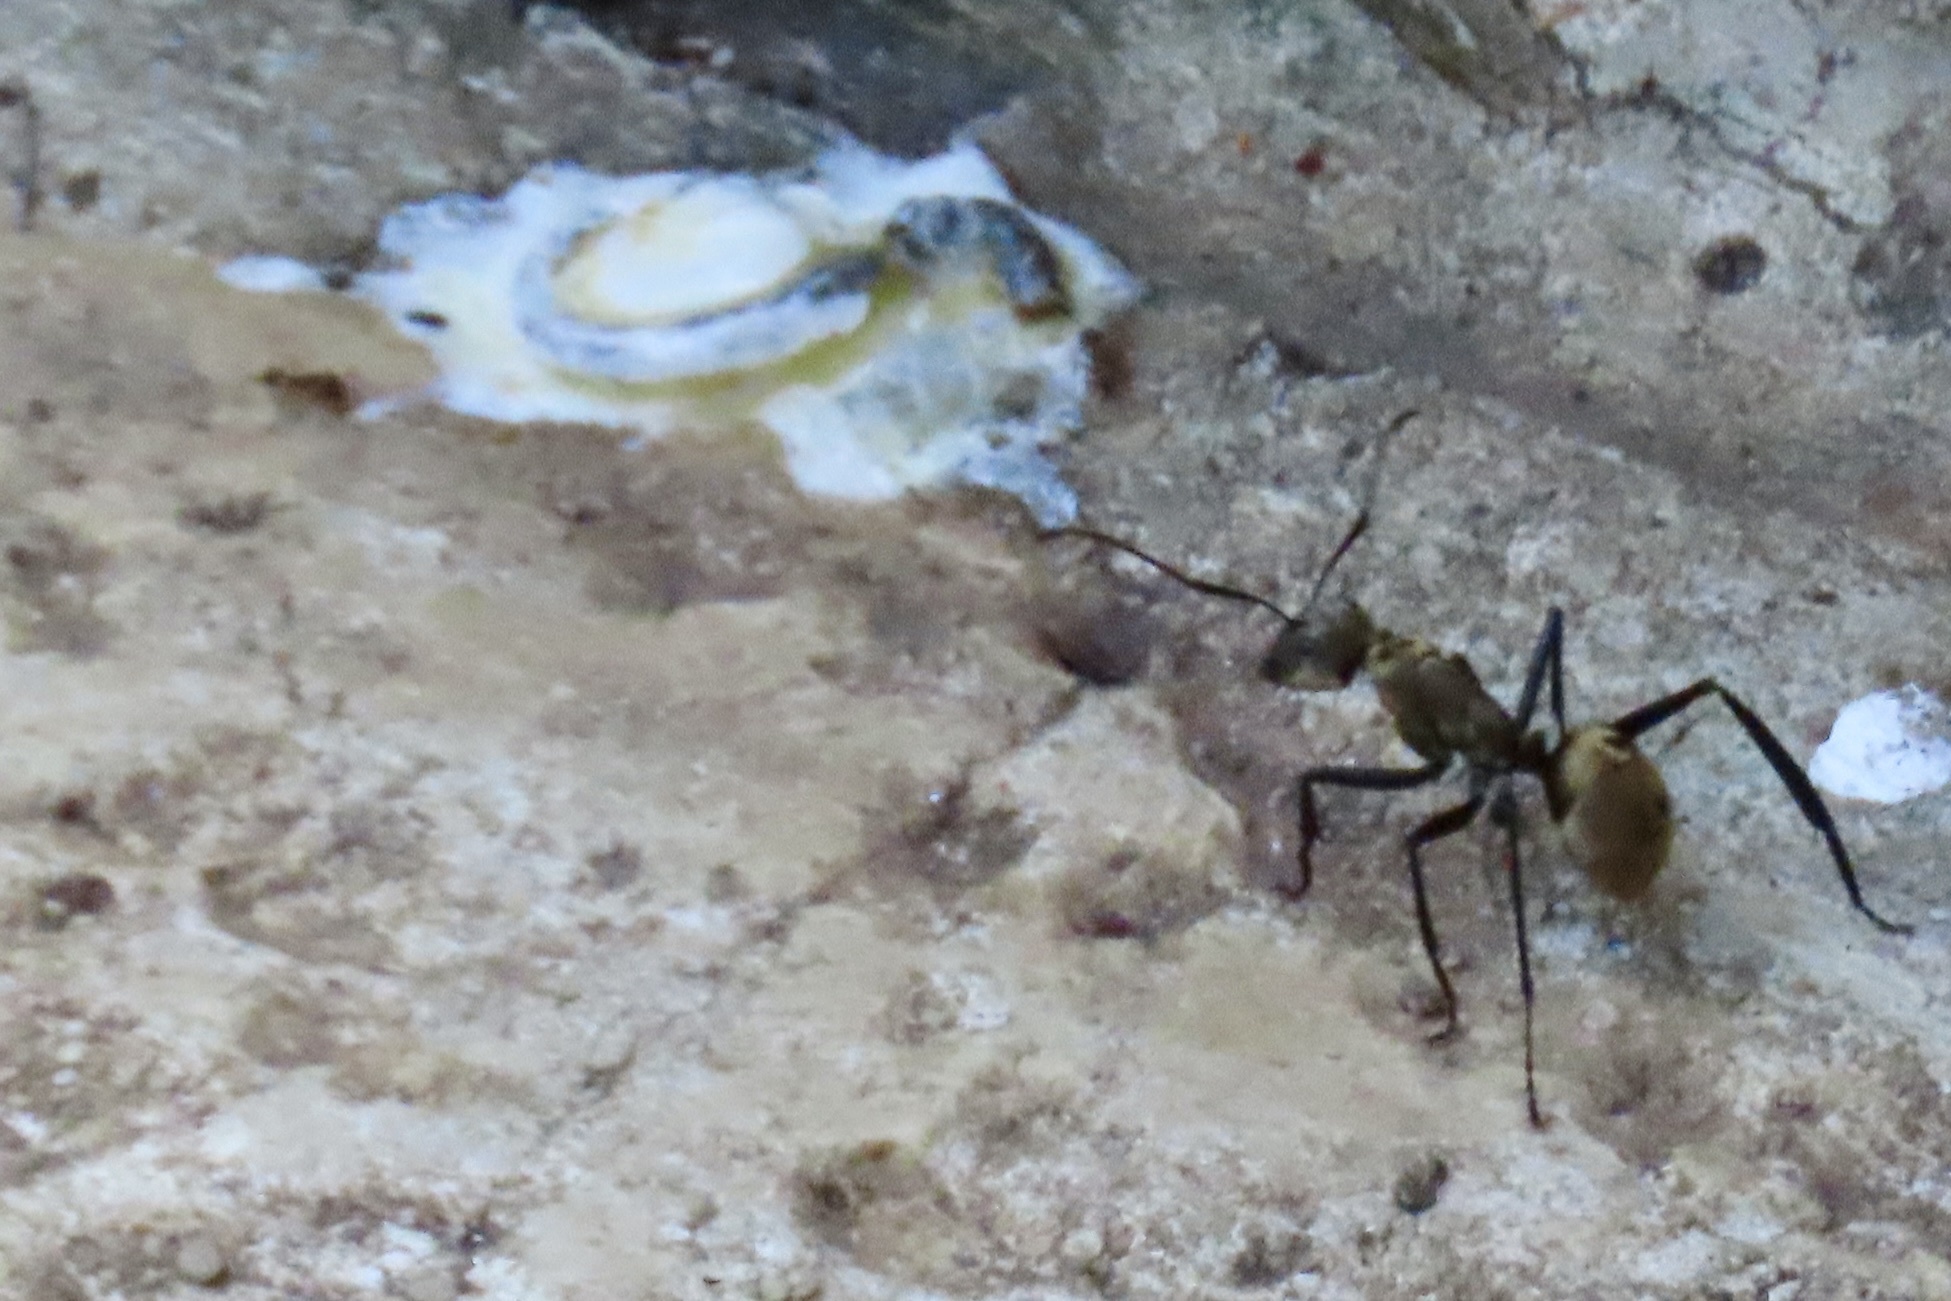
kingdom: Animalia
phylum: Arthropoda
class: Insecta
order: Hymenoptera
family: Formicidae
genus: Camponotus
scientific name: Camponotus sericeiventris
